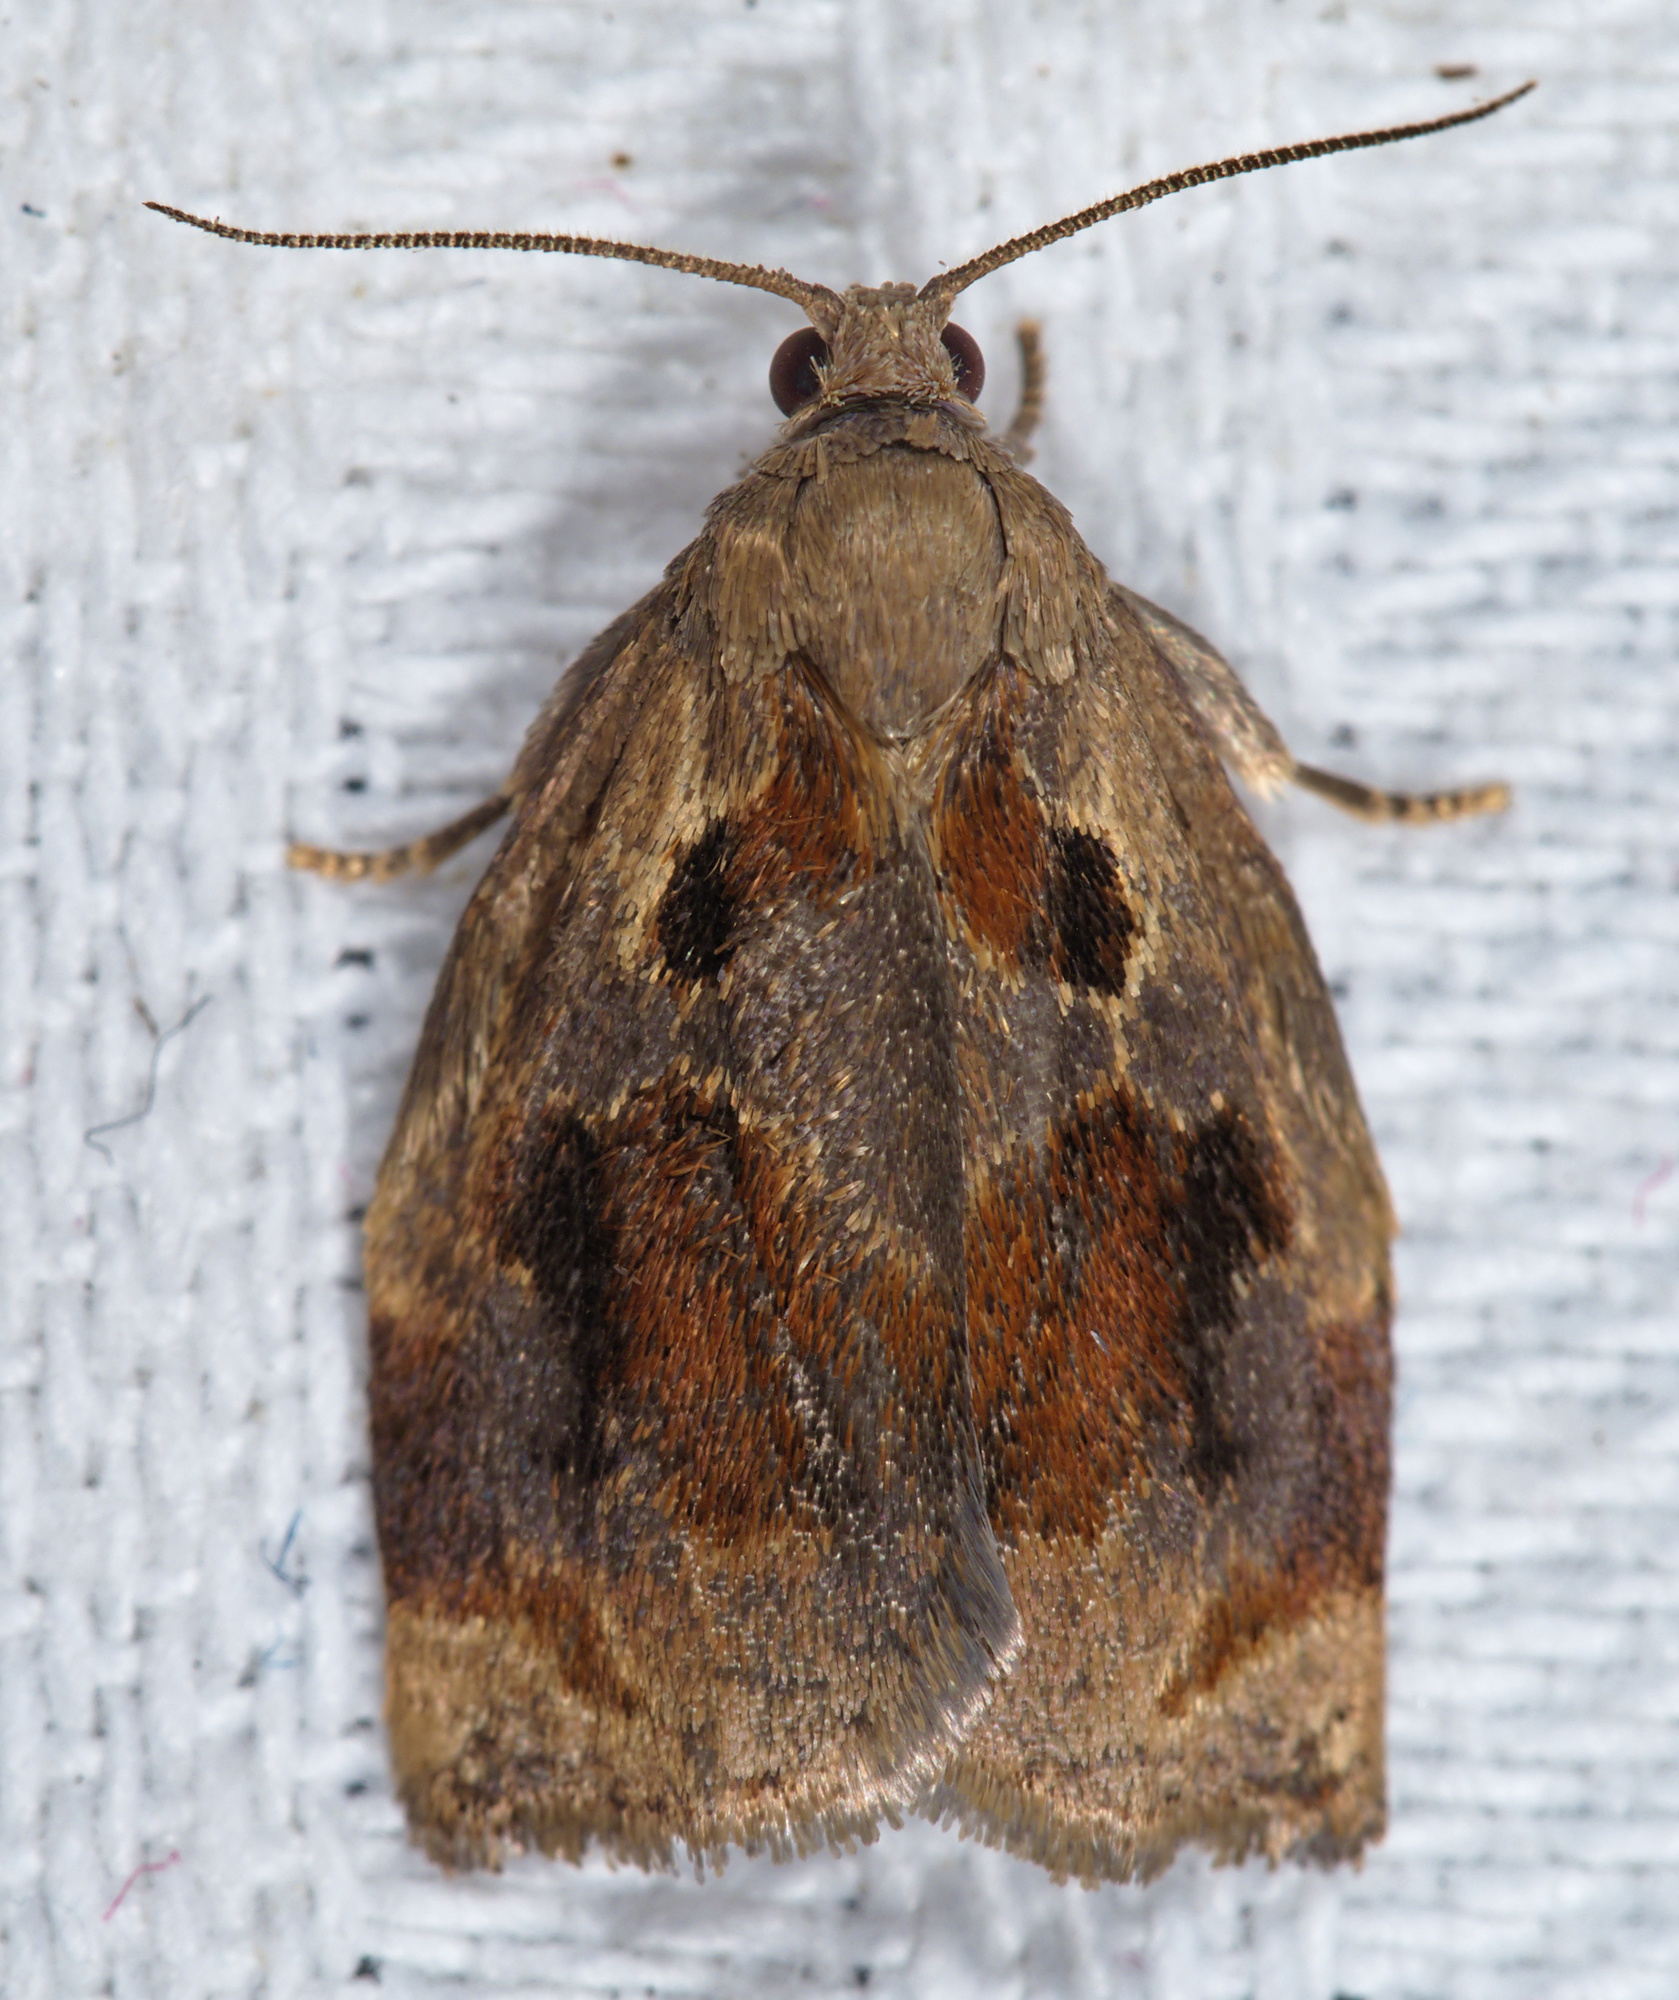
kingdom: Animalia
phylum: Arthropoda
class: Insecta
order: Lepidoptera
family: Tortricidae
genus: Archips
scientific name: Archips crataegana
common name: Brown oak tortrix
